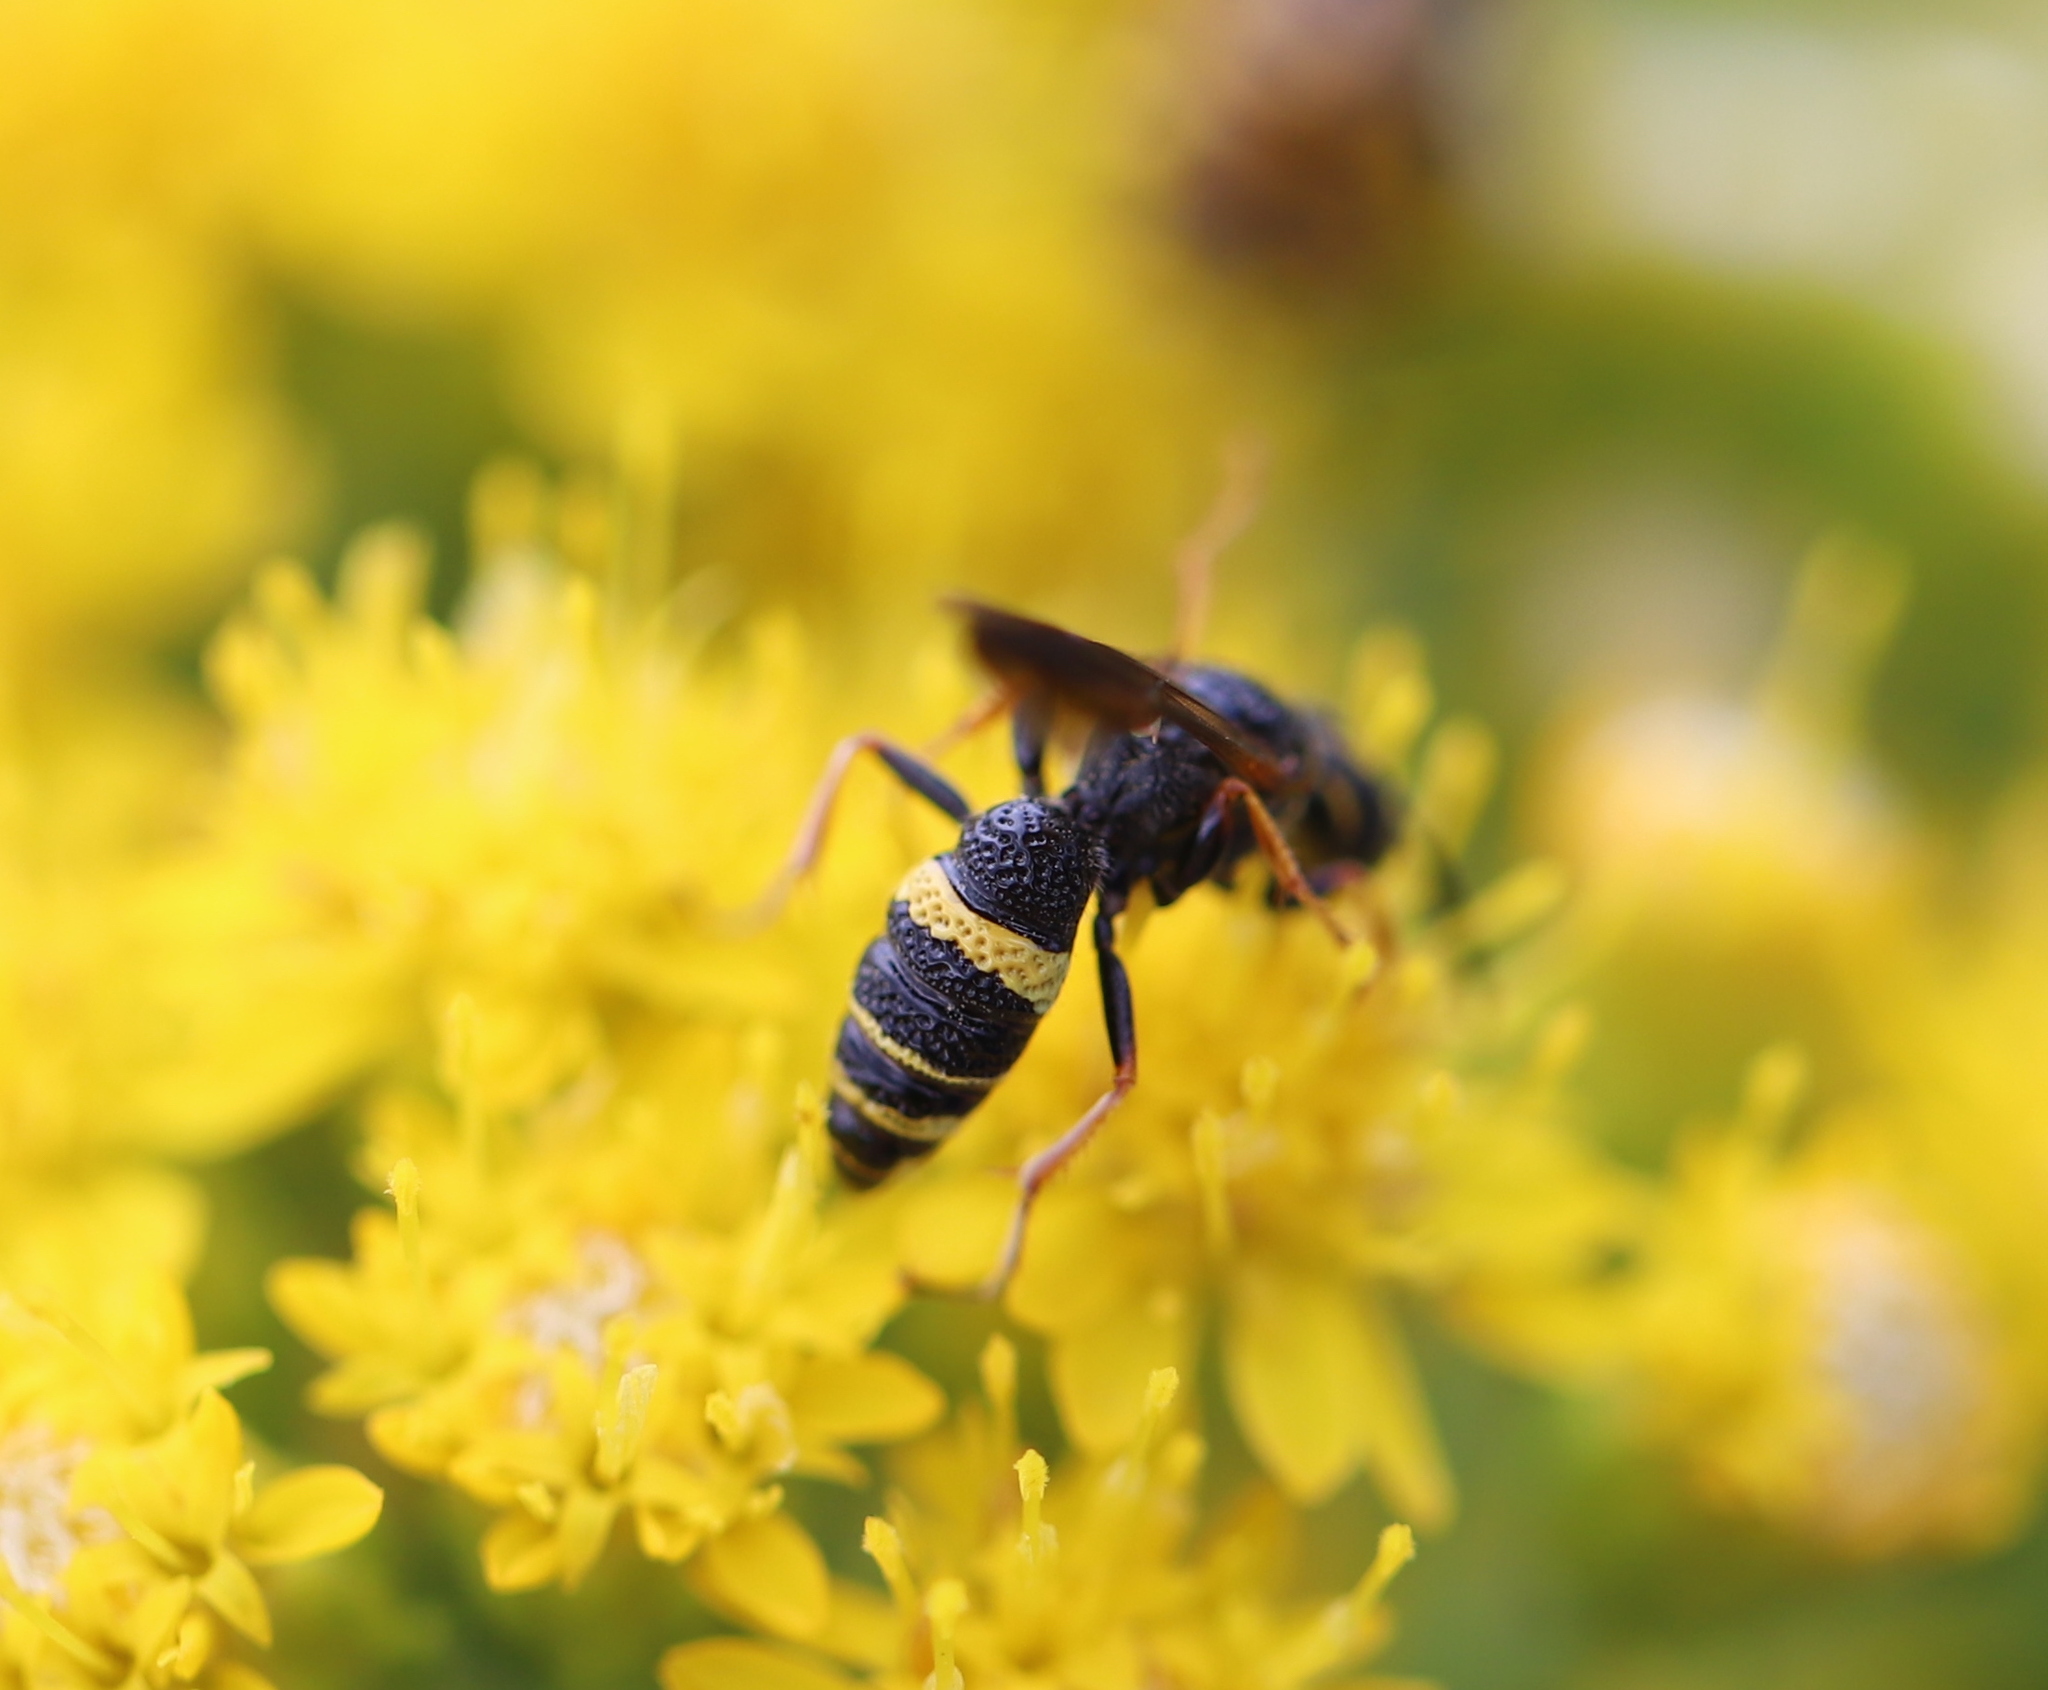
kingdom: Animalia
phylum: Arthropoda
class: Insecta
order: Hymenoptera
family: Crabronidae
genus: Philanthus
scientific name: Philanthus gibbosus
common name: Humped beewolf
